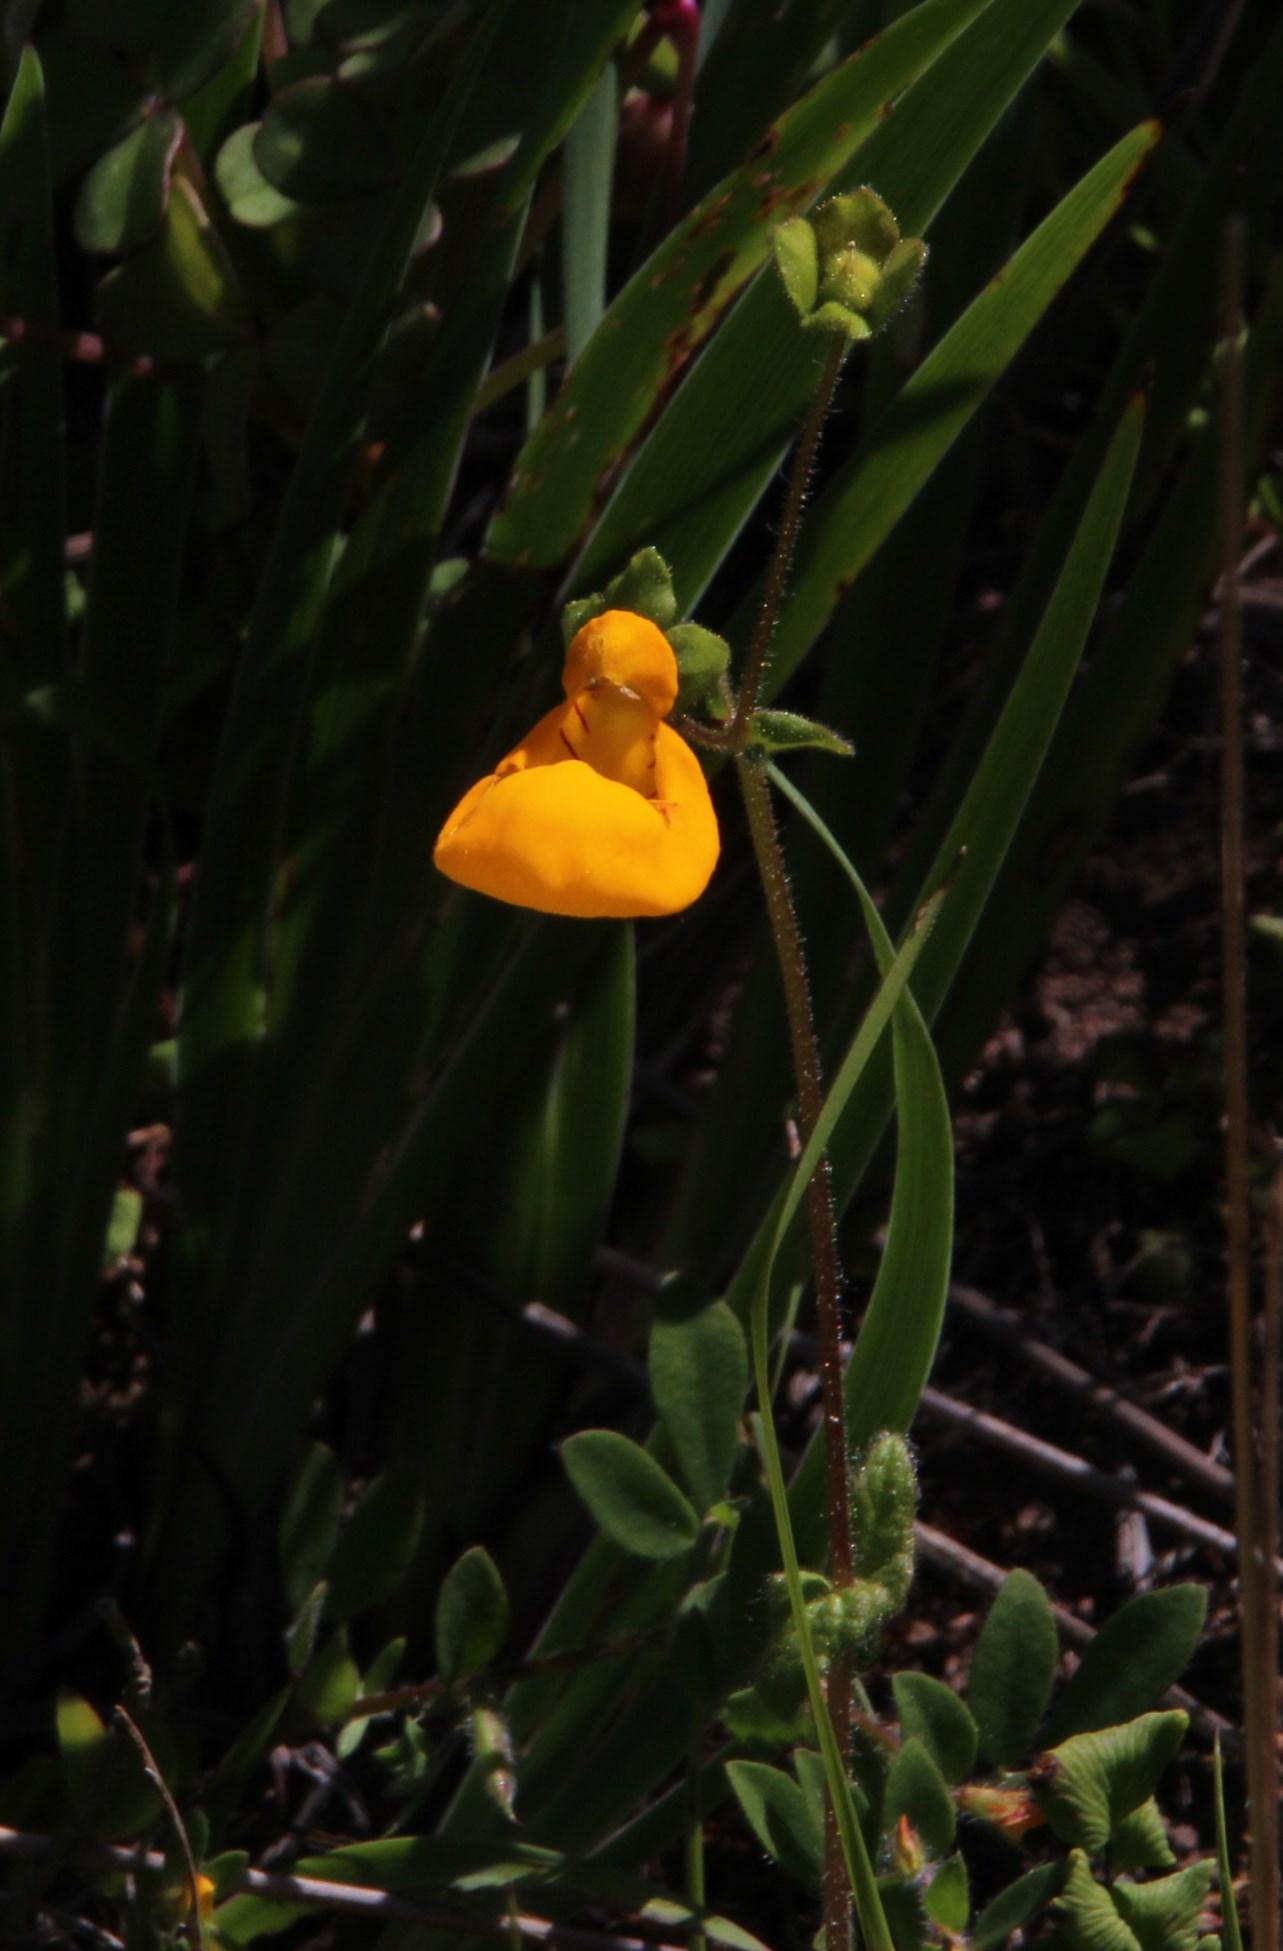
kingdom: Plantae
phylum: Tracheophyta
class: Magnoliopsida
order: Lamiales
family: Calceolariaceae
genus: Calceolaria
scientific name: Calceolaria corymbosa
